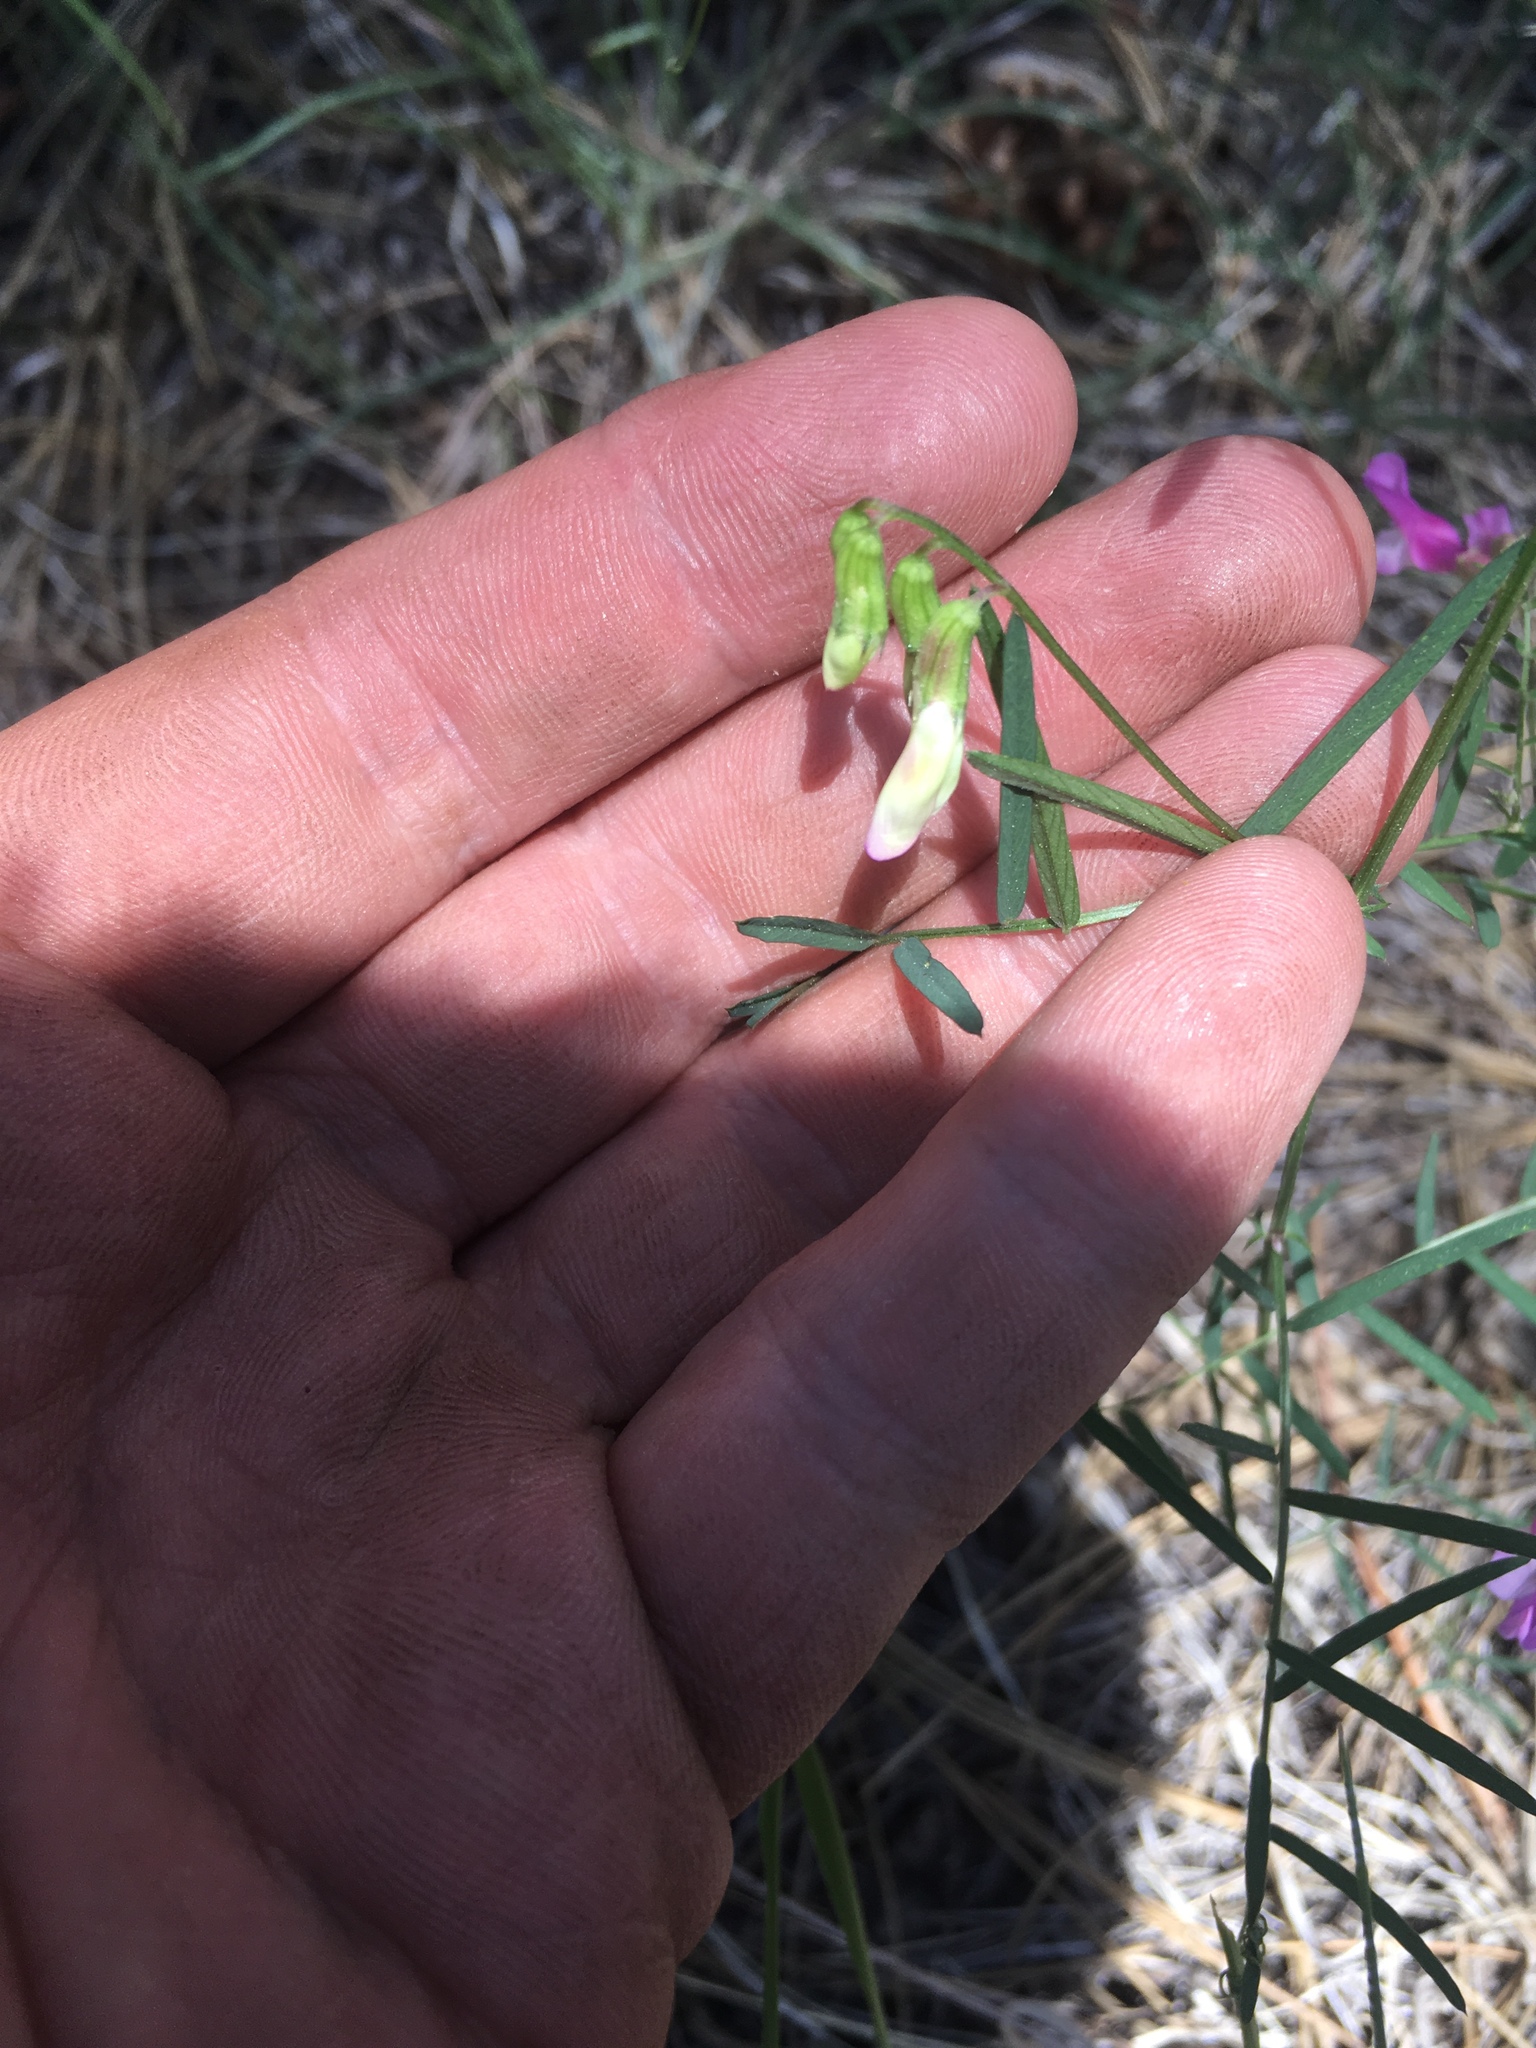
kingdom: Plantae
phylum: Tracheophyta
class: Magnoliopsida
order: Fabales
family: Fabaceae
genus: Vicia
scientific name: Vicia americana
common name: American vetch
